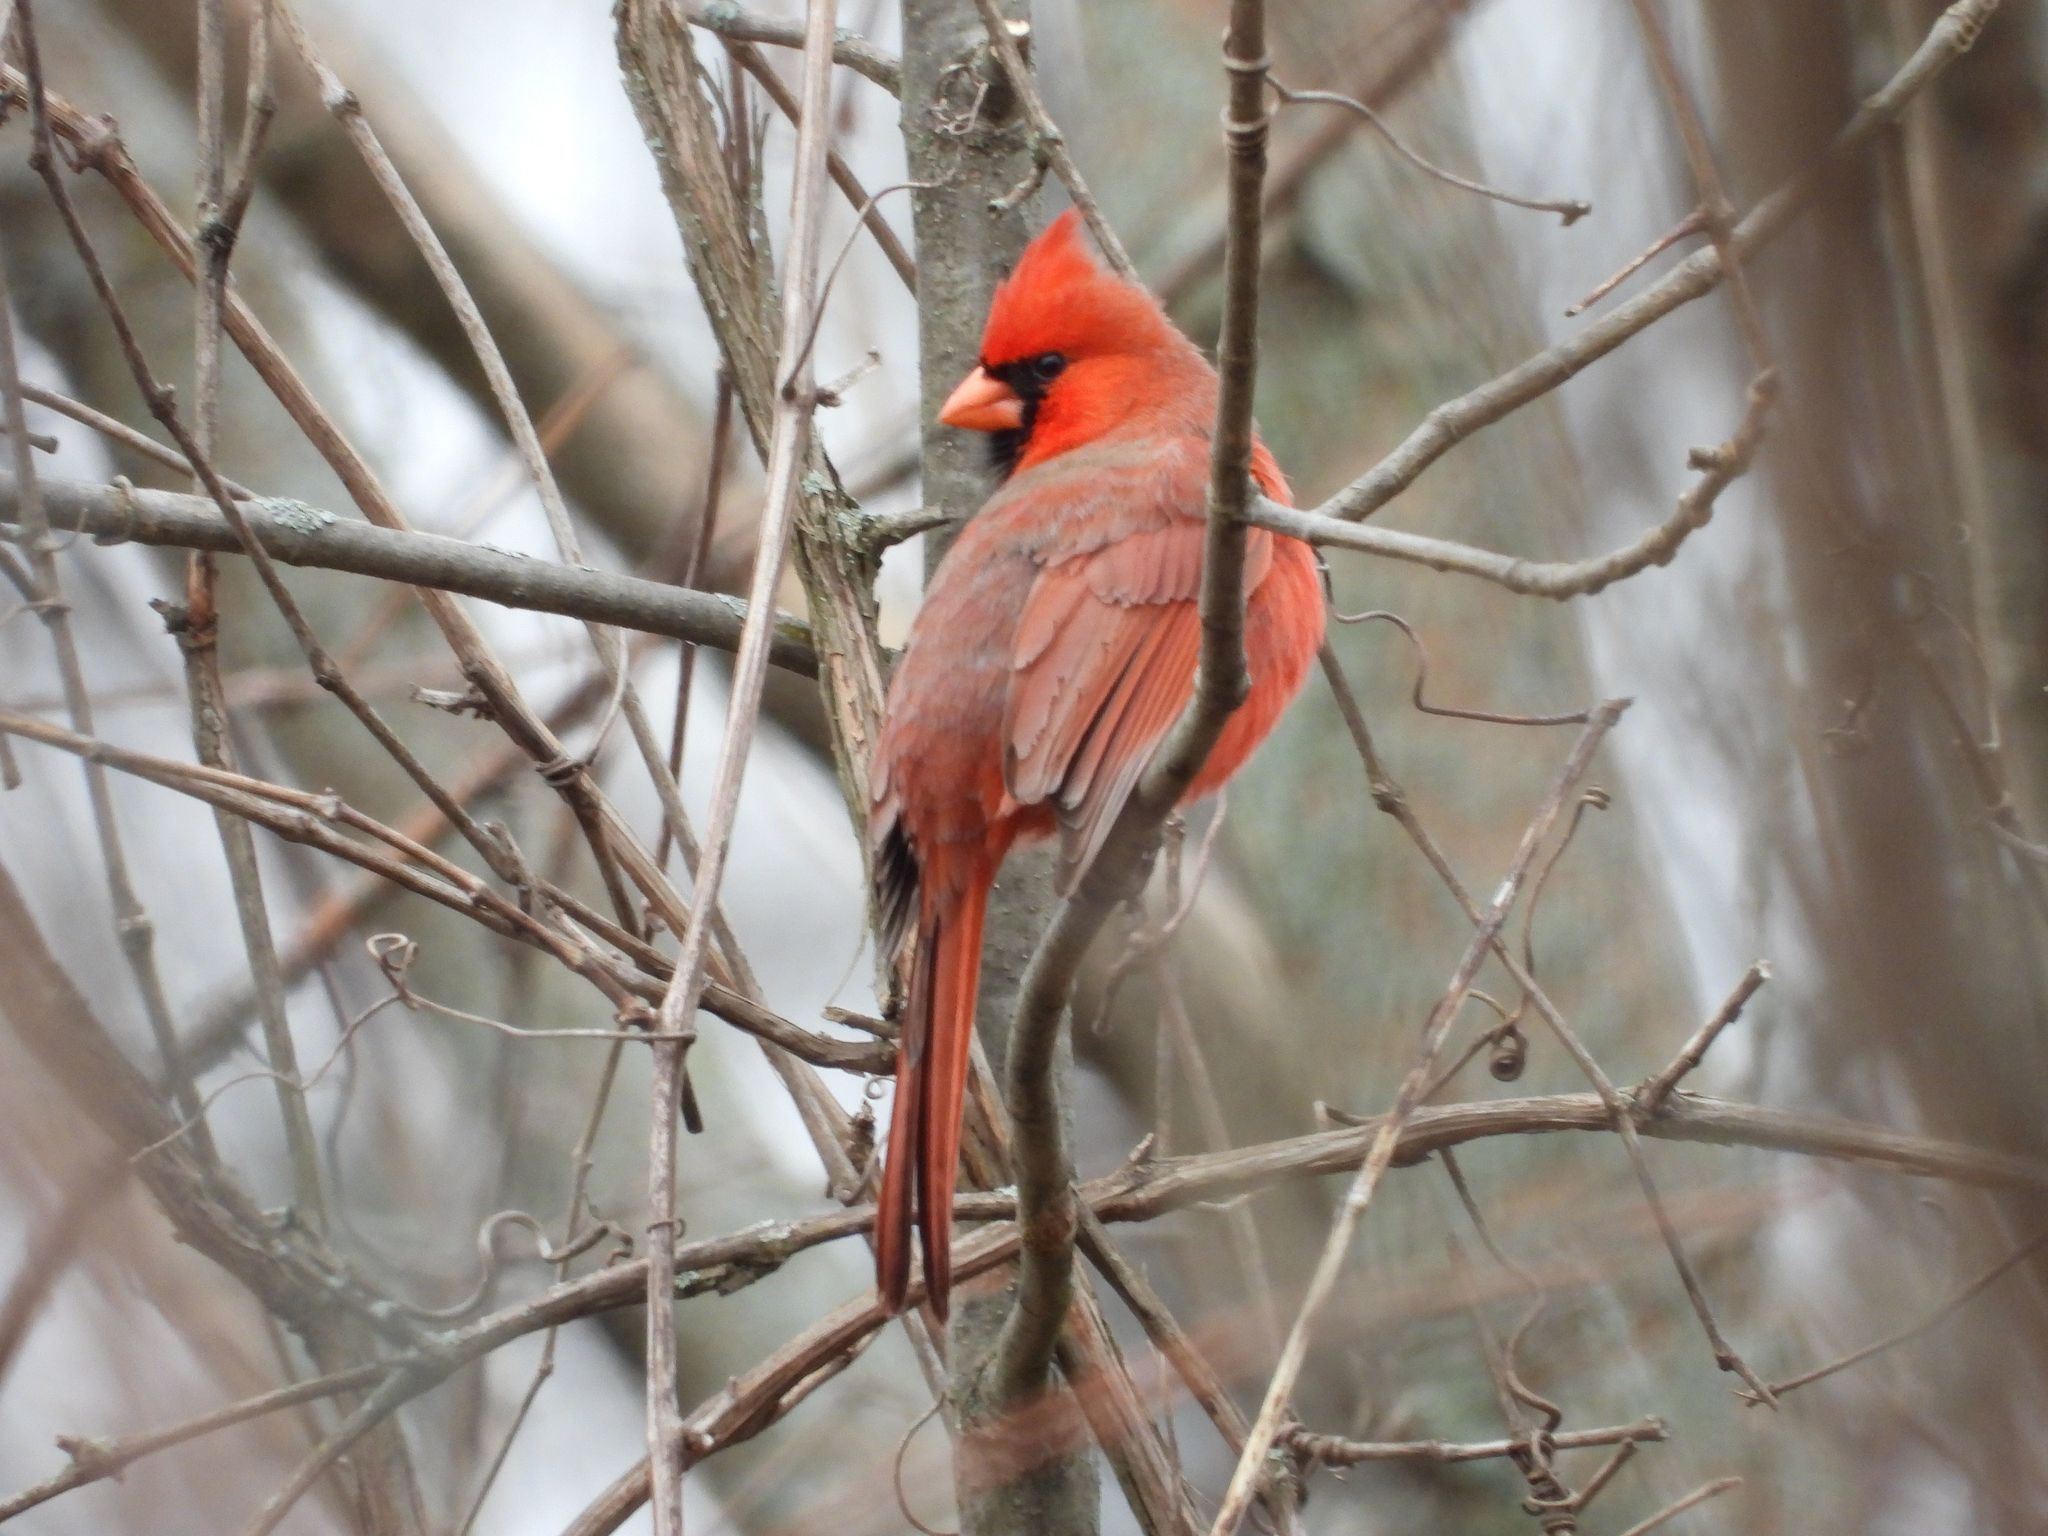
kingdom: Animalia
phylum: Chordata
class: Aves
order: Passeriformes
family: Cardinalidae
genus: Cardinalis
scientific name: Cardinalis cardinalis
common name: Northern cardinal
